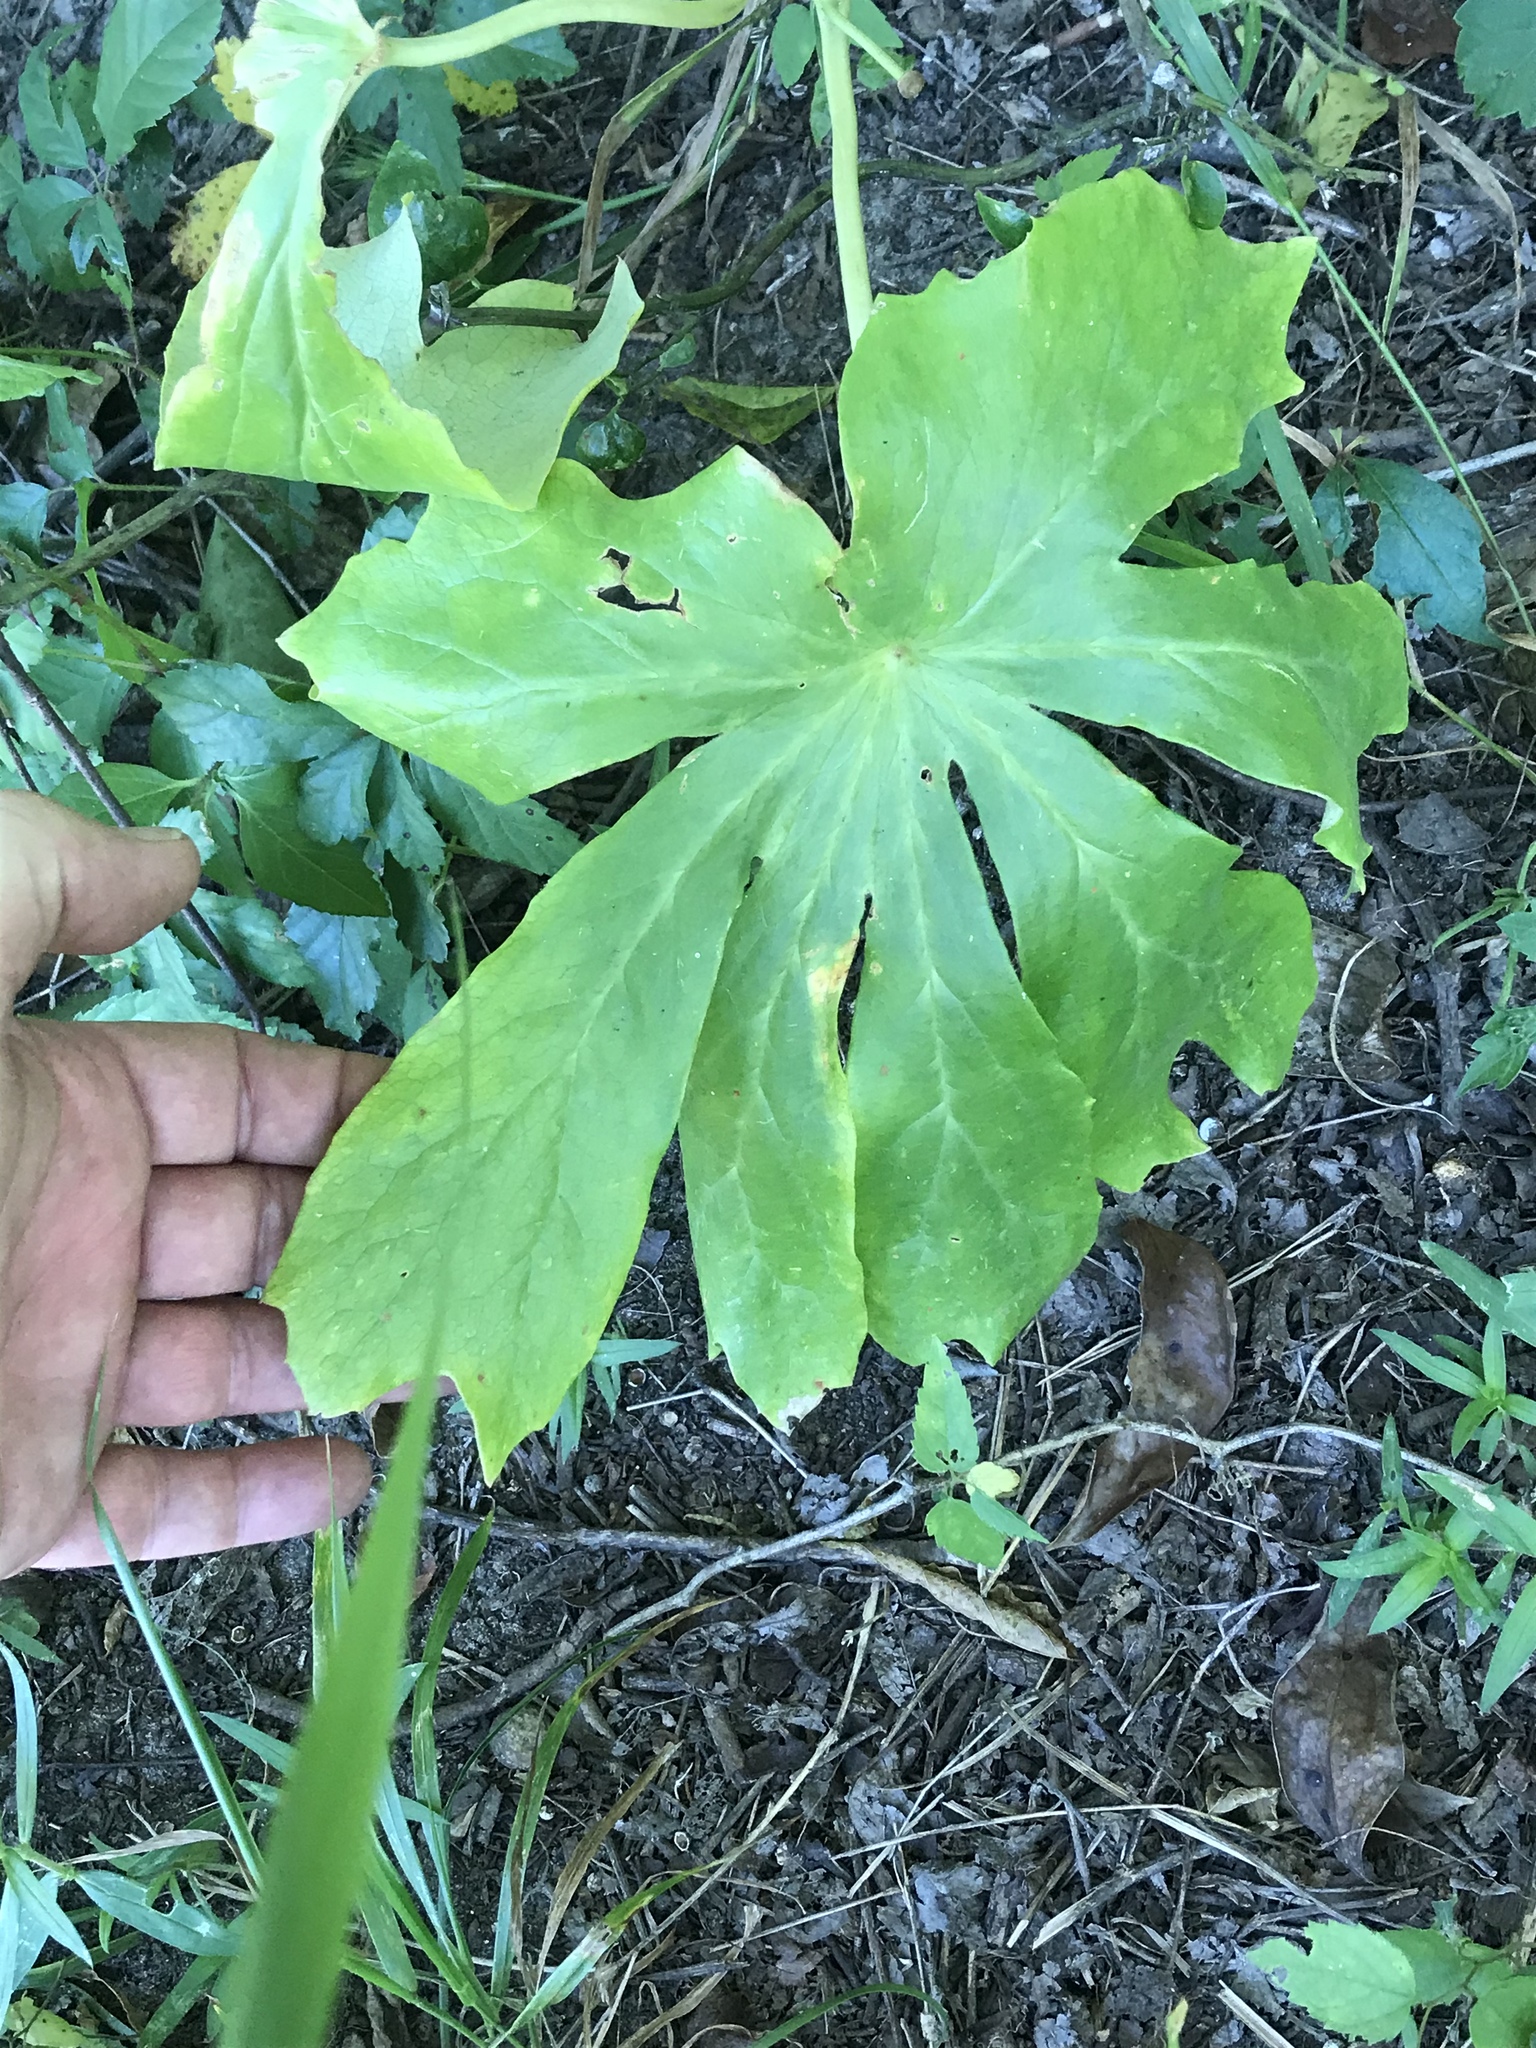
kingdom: Plantae
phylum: Tracheophyta
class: Magnoliopsida
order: Ranunculales
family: Berberidaceae
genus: Podophyllum
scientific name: Podophyllum peltatum
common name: Wild mandrake
